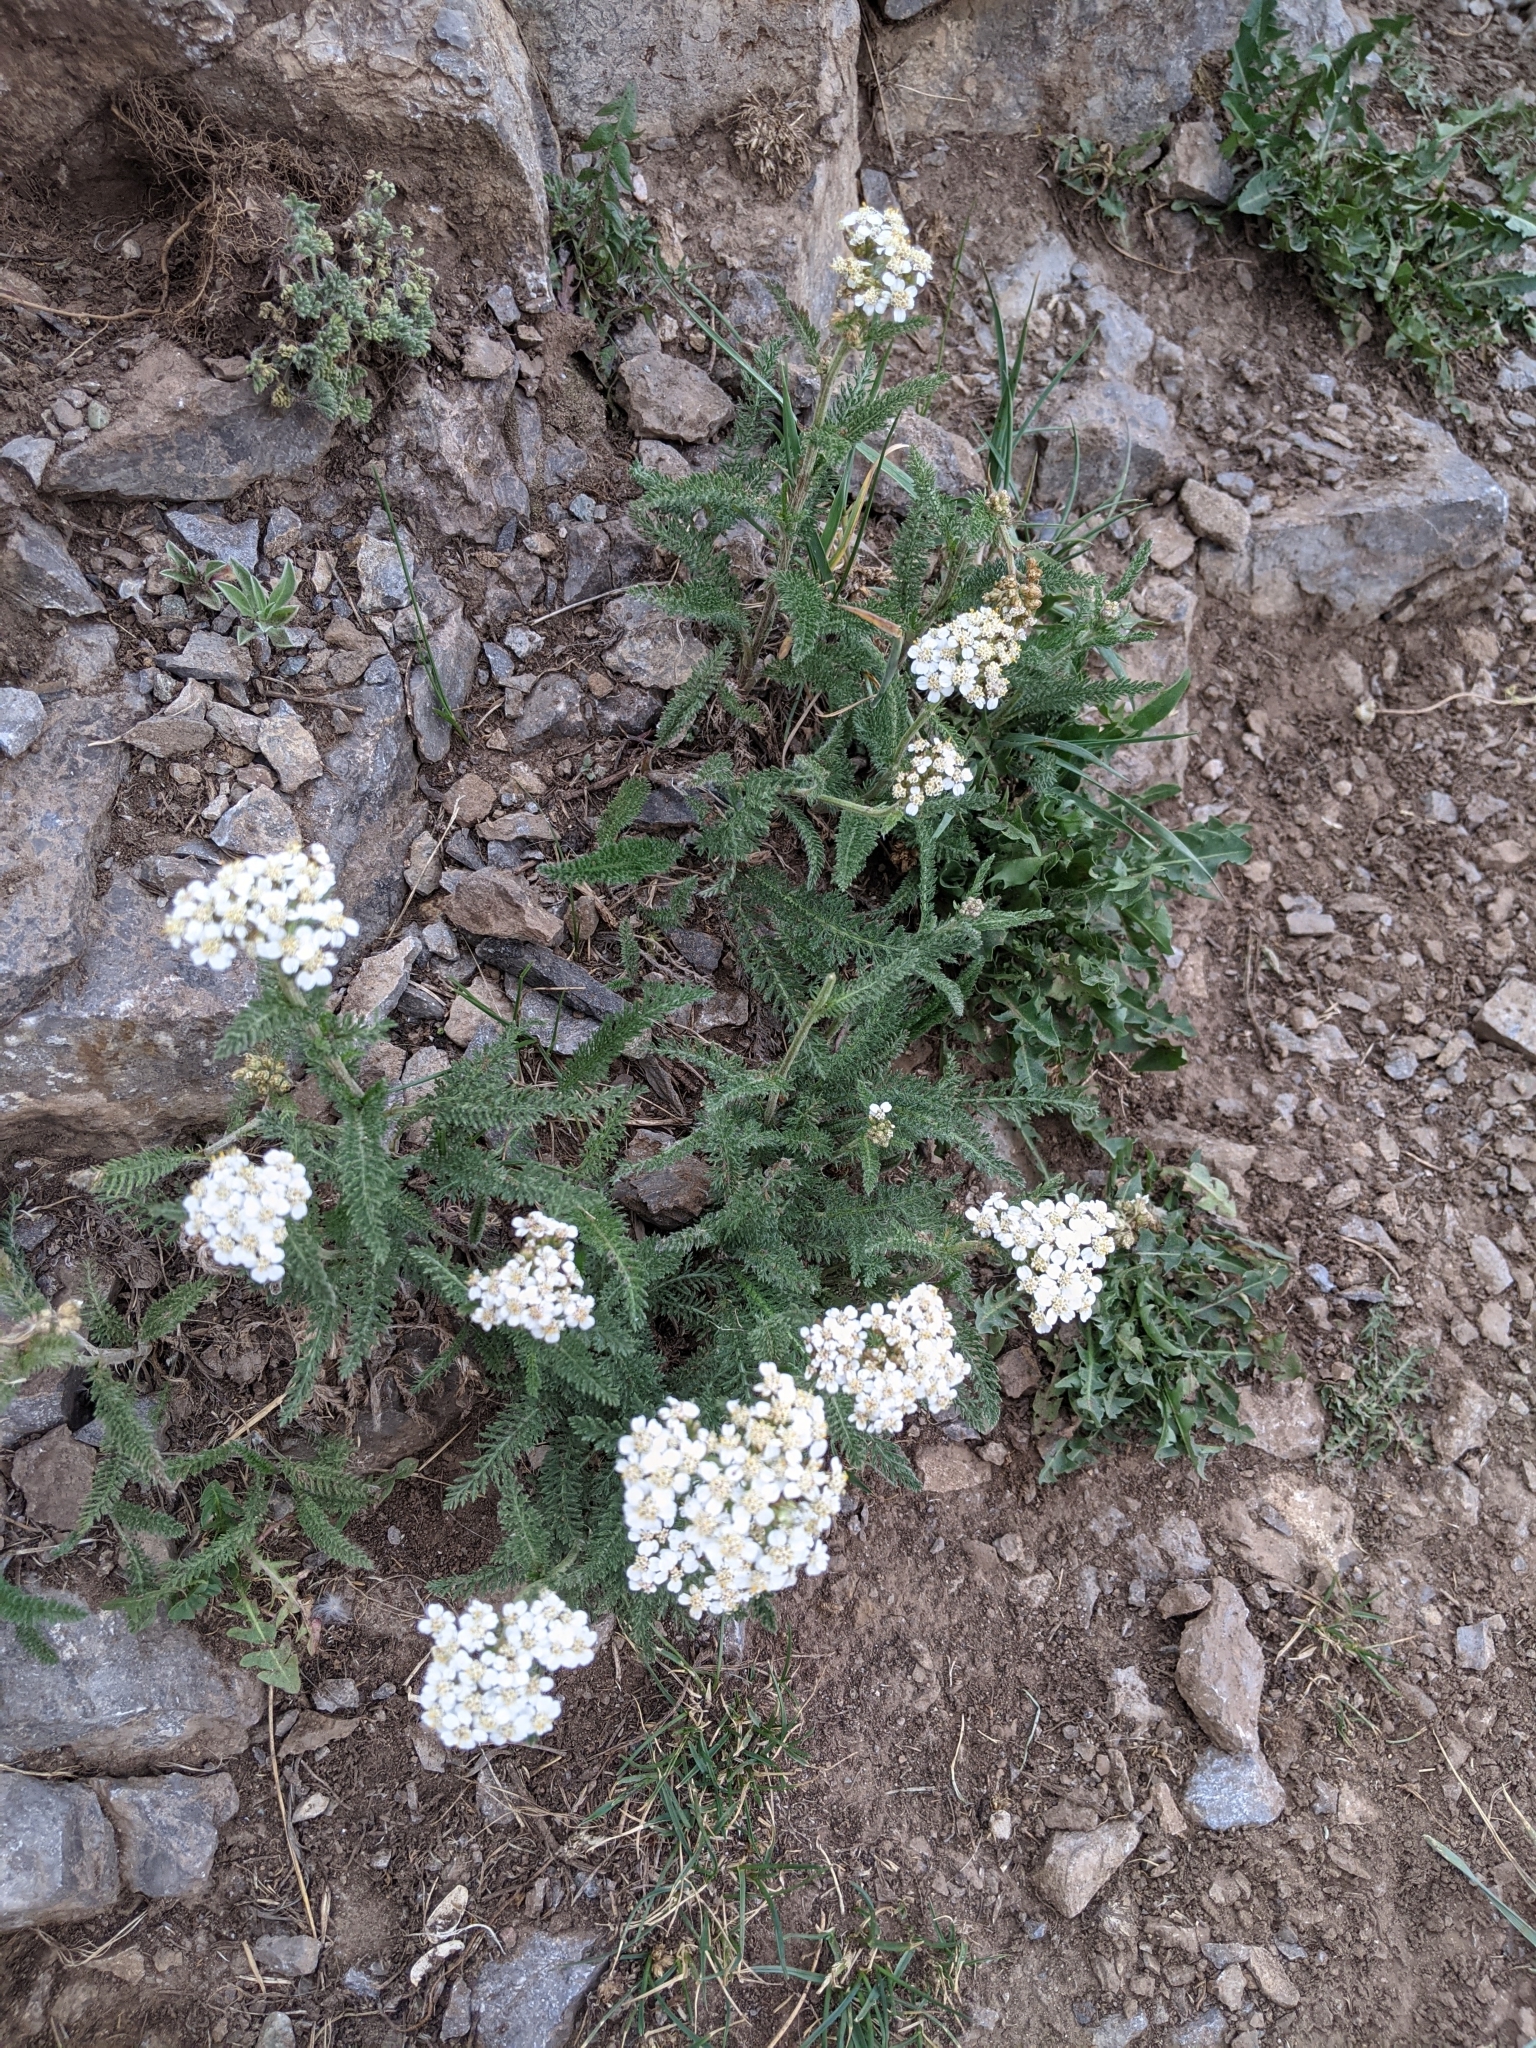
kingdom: Plantae
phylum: Tracheophyta
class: Magnoliopsida
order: Asterales
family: Asteraceae
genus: Achillea
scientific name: Achillea millefolium
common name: Yarrow
